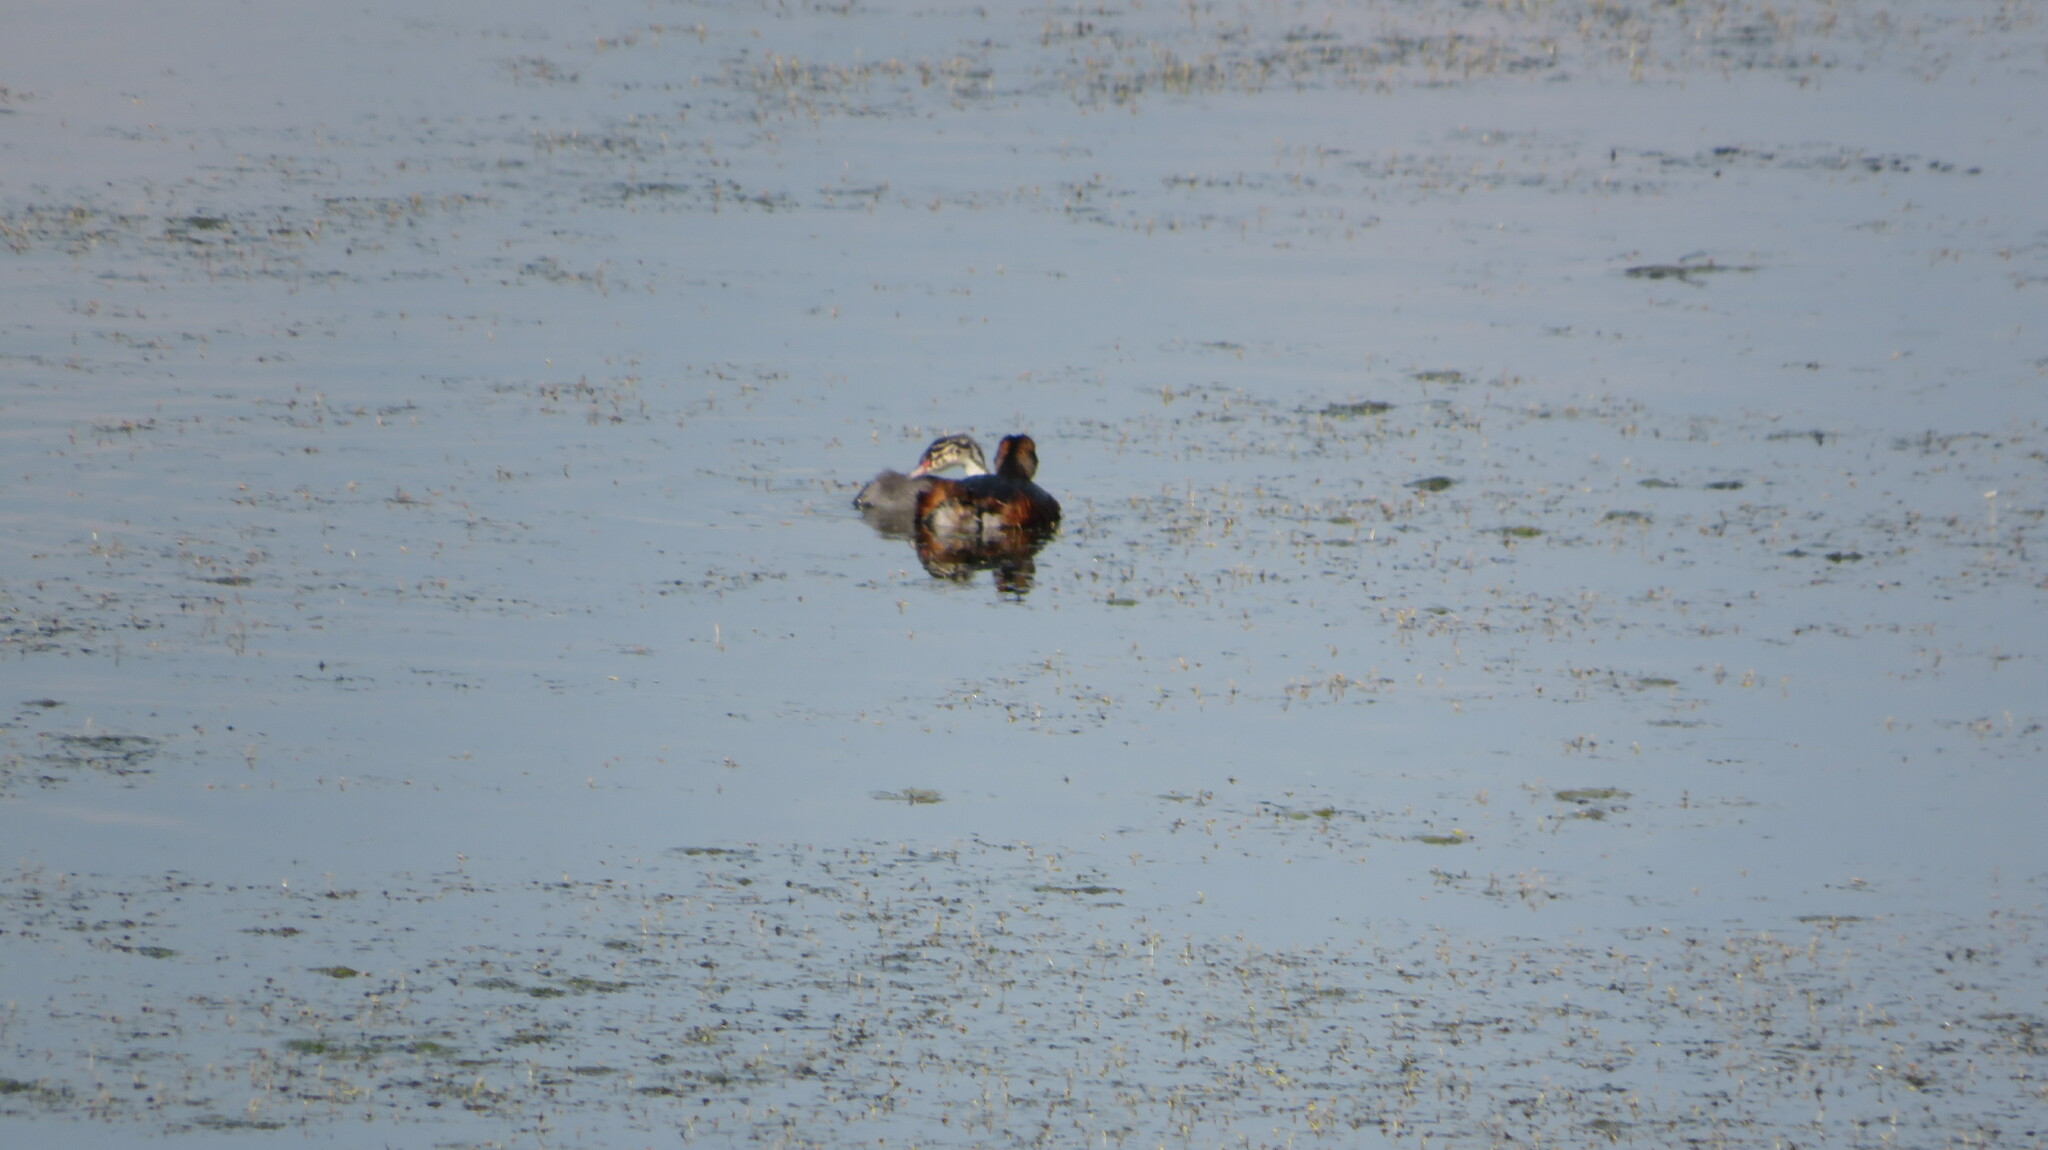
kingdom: Animalia
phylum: Chordata
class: Aves
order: Podicipediformes
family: Podicipedidae
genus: Podiceps
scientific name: Podiceps auritus
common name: Horned grebe
